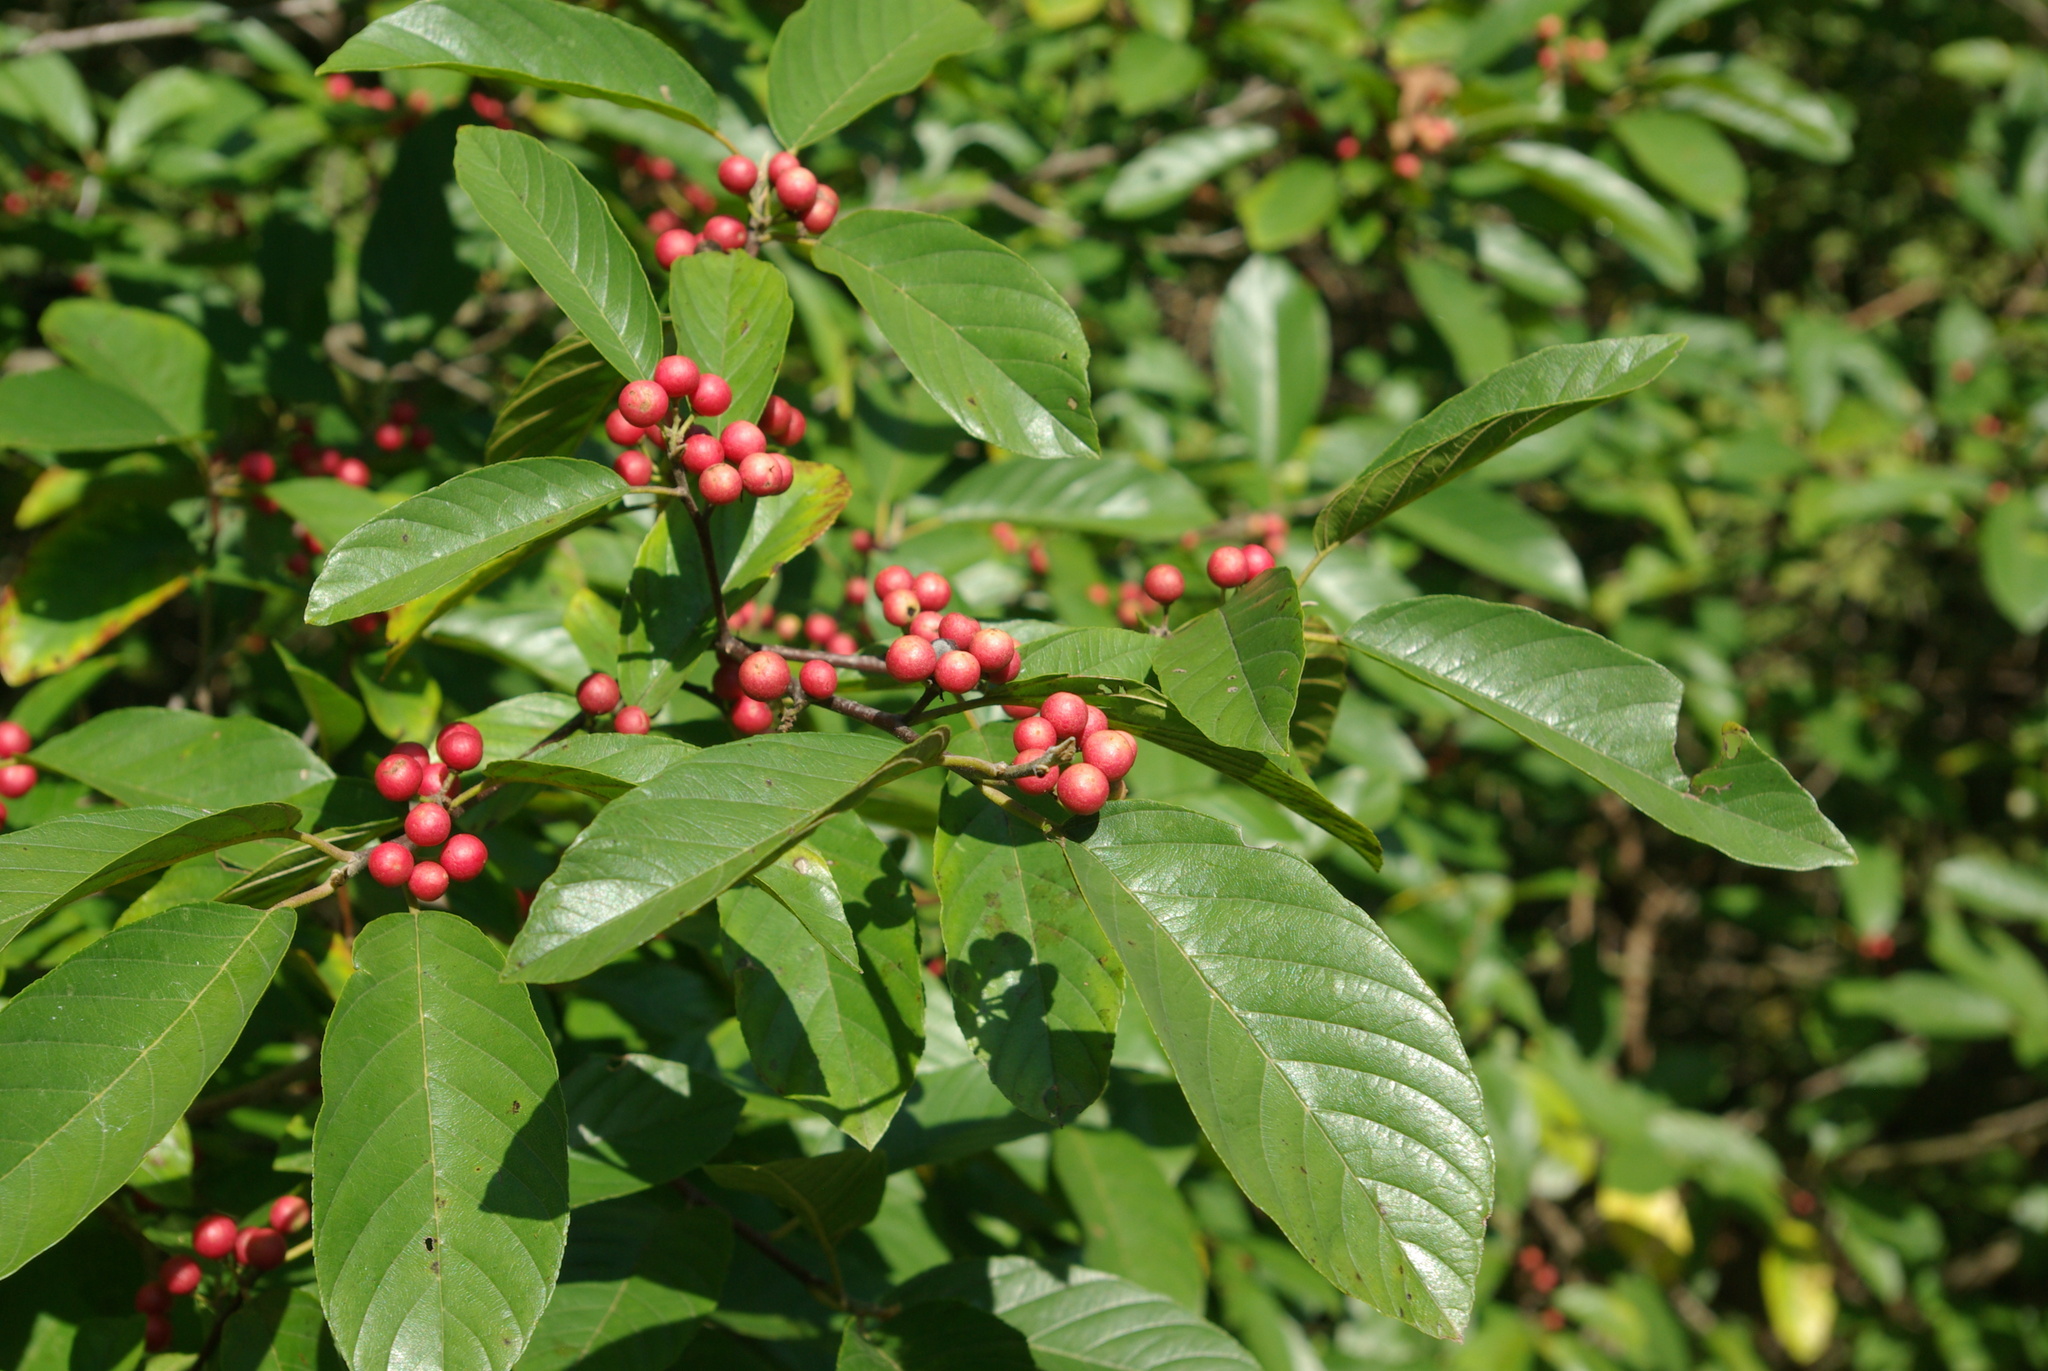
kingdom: Plantae
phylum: Tracheophyta
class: Magnoliopsida
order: Rosales
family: Rhamnaceae
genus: Frangula
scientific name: Frangula caroliniana
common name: Carolina buckthorn
